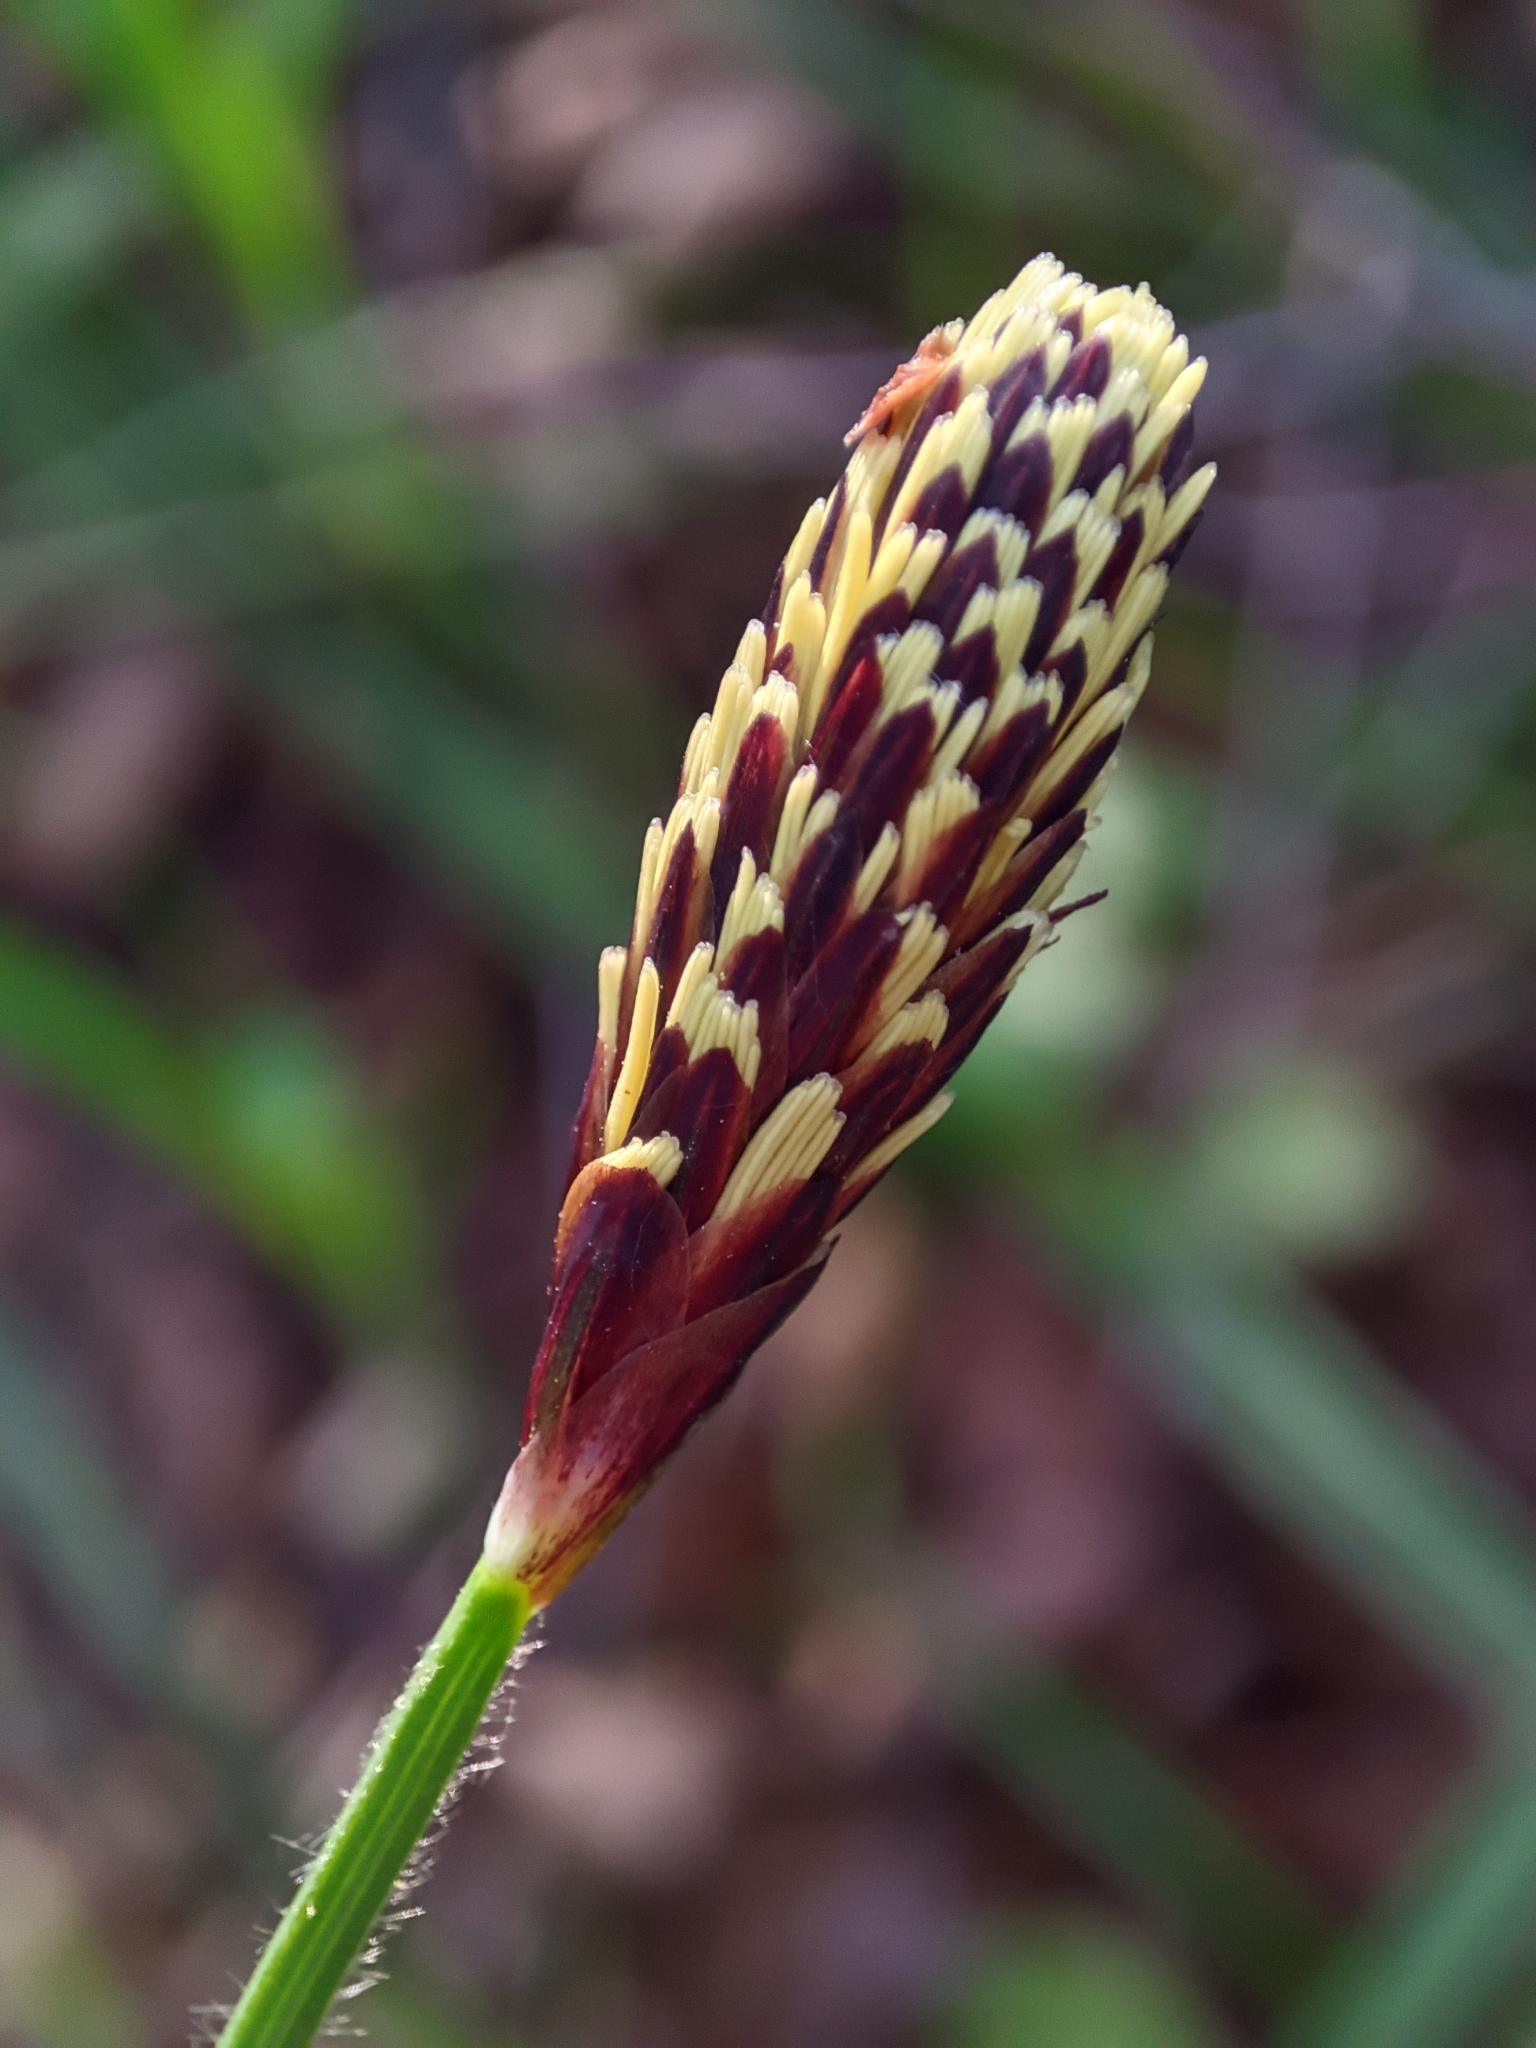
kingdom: Plantae
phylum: Tracheophyta
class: Liliopsida
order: Poales
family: Cyperaceae
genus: Carex
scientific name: Carex pilosa
